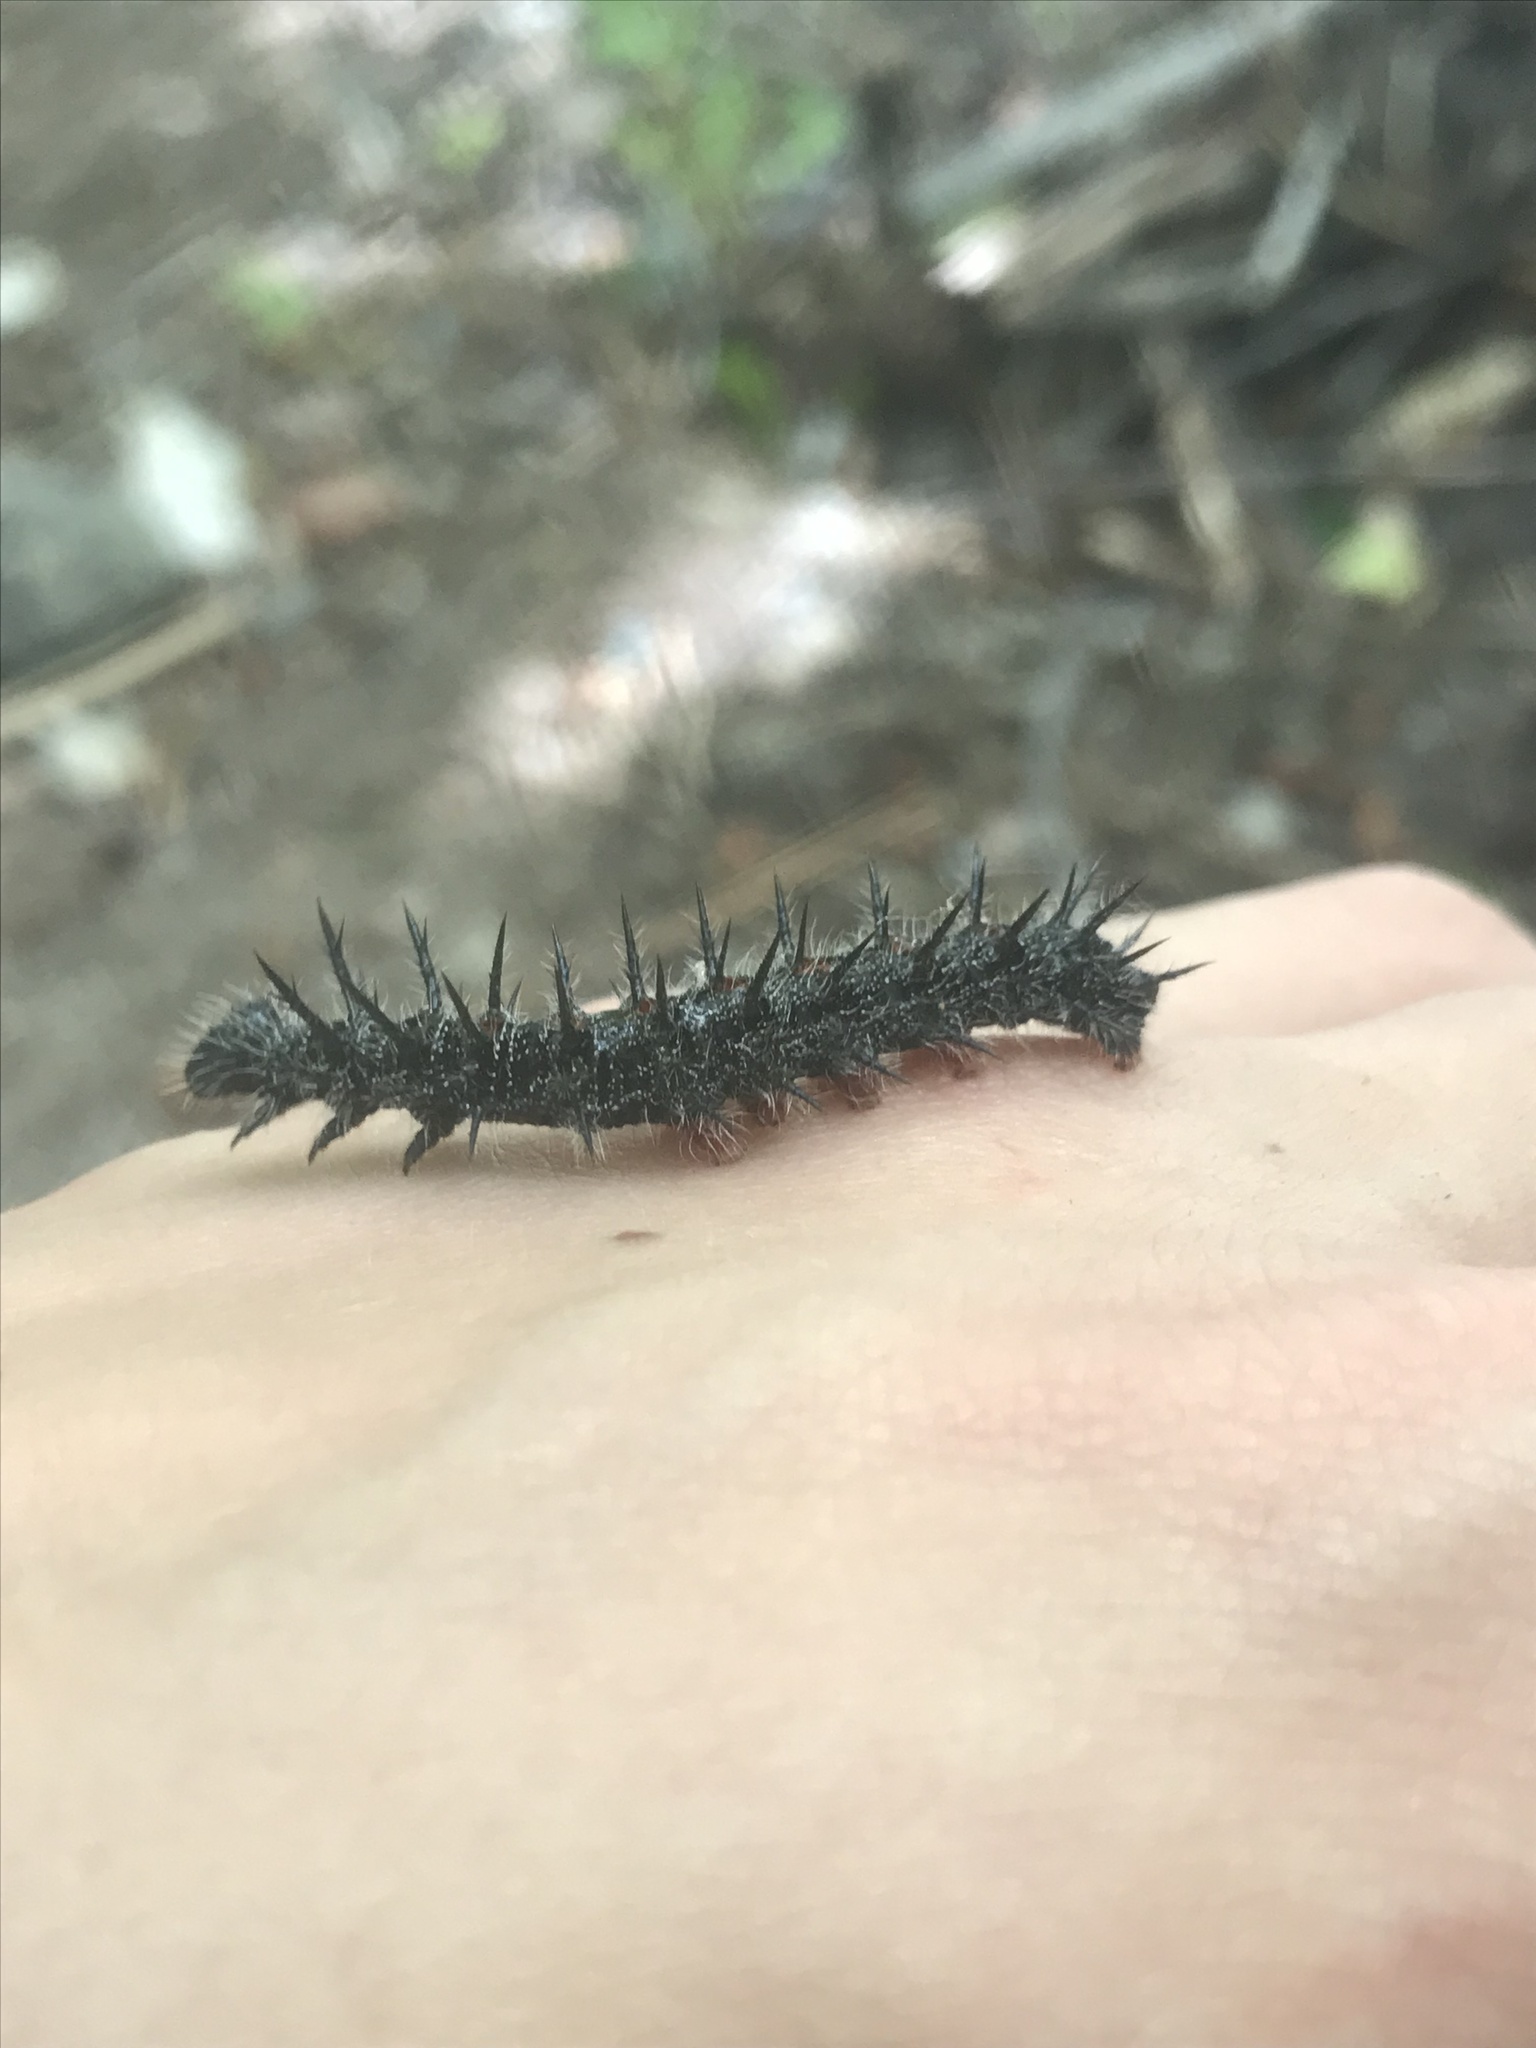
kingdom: Animalia
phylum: Arthropoda
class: Insecta
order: Lepidoptera
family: Nymphalidae
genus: Nymphalis
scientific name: Nymphalis antiopa
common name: Camberwell beauty
